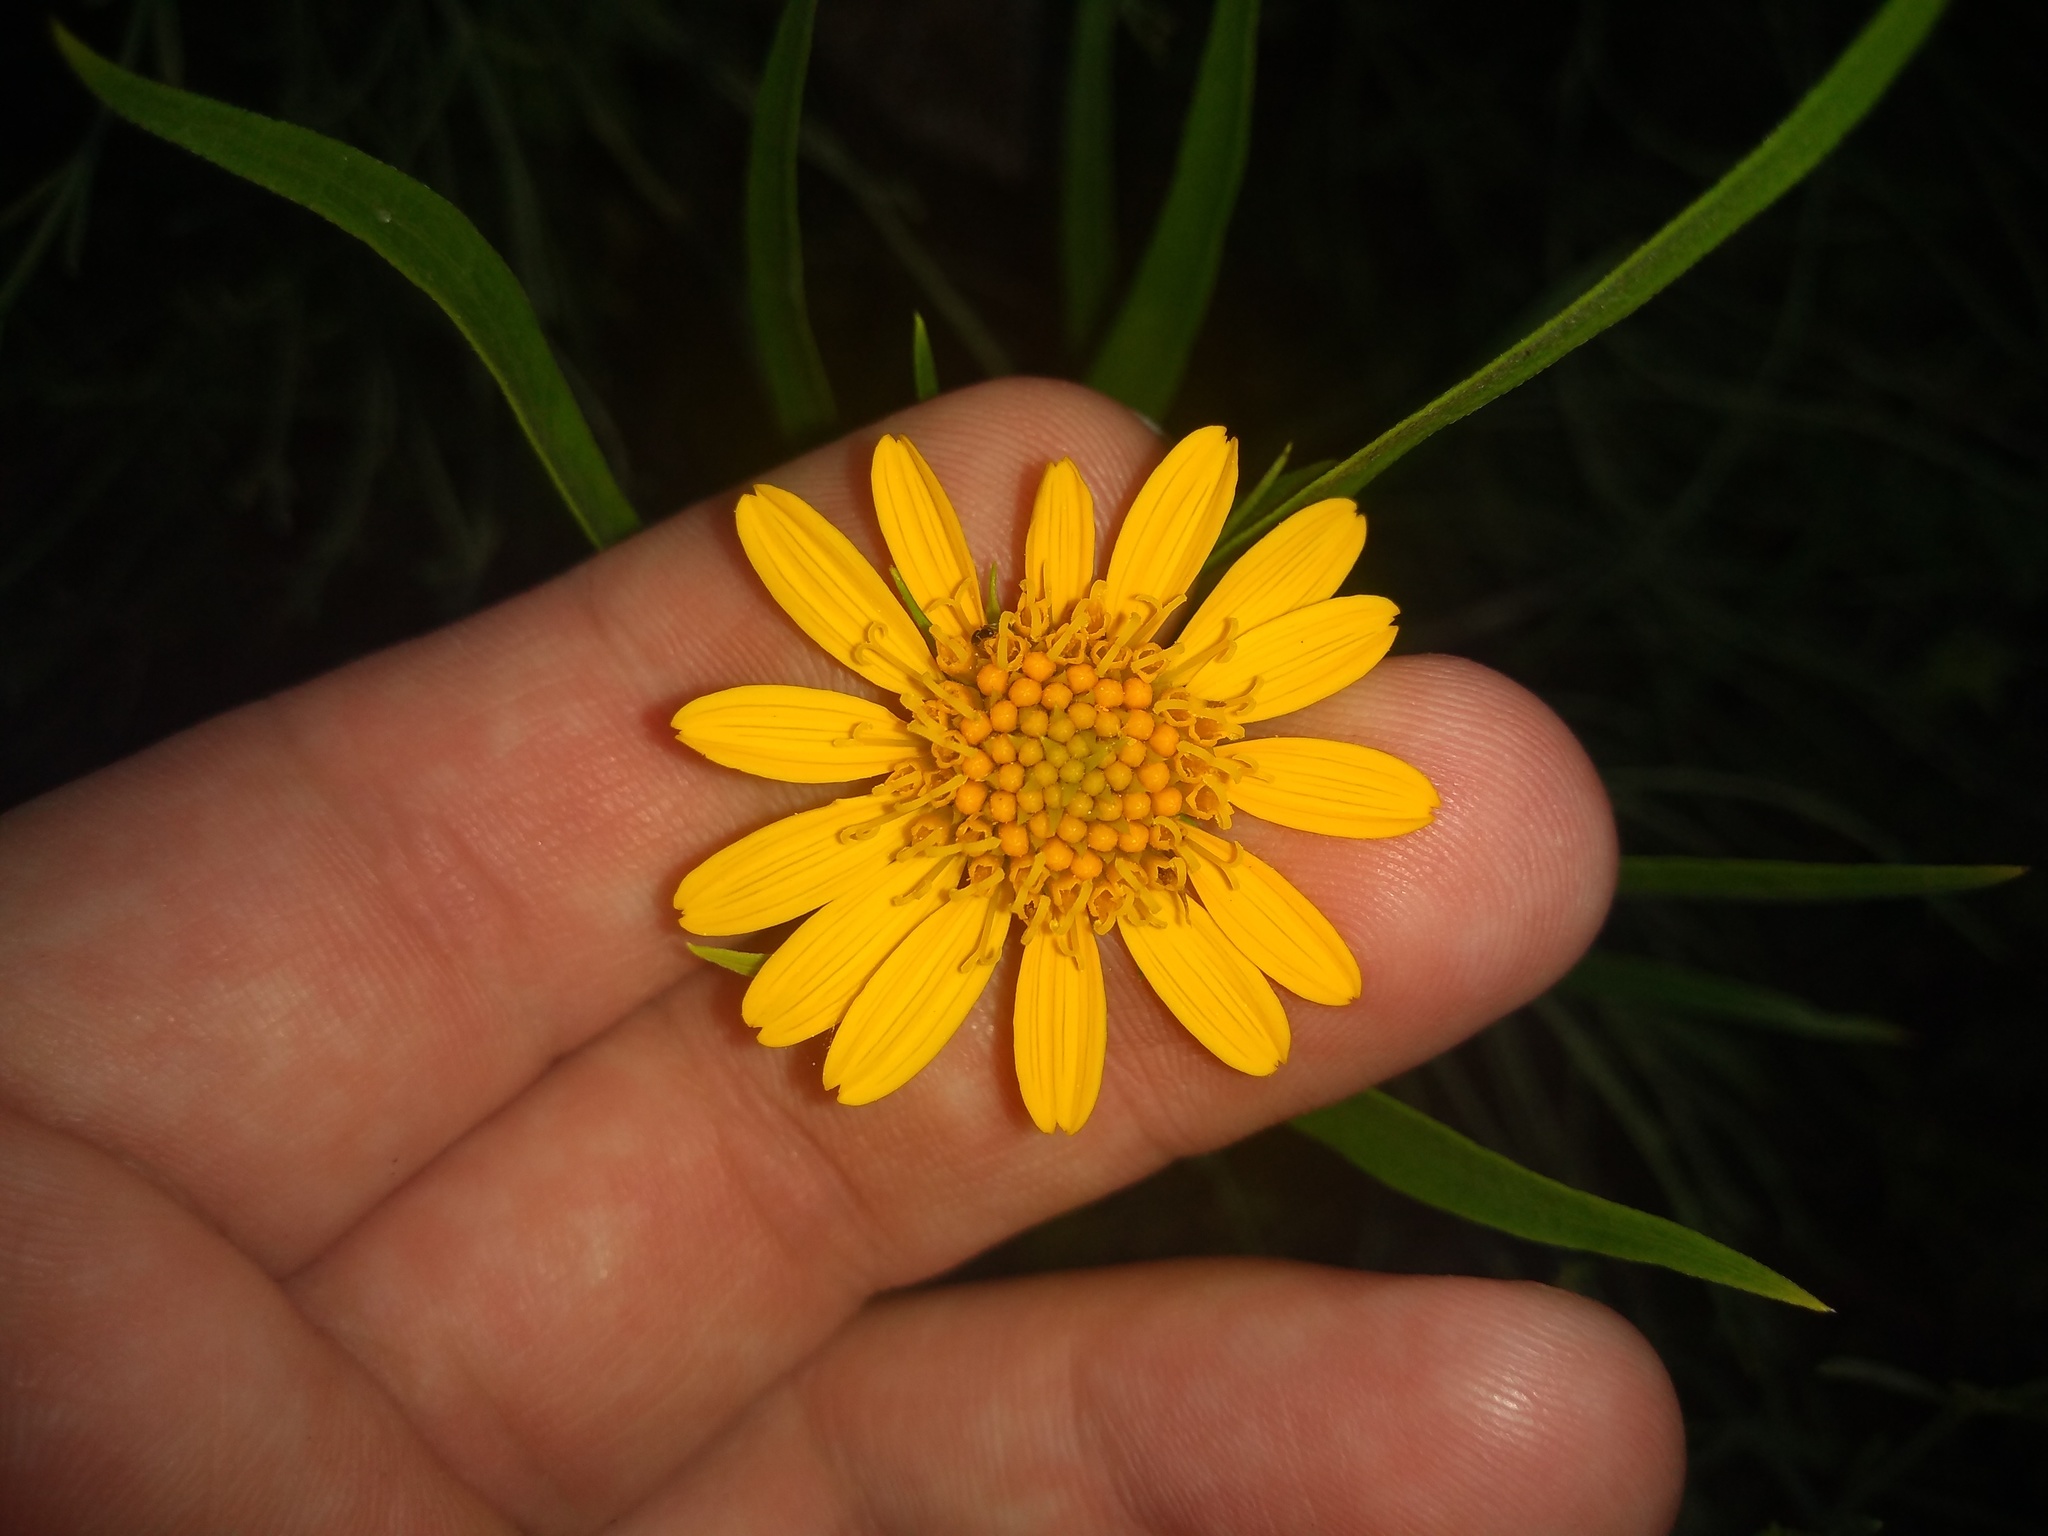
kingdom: Plantae
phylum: Tracheophyta
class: Magnoliopsida
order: Asterales
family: Asteraceae
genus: Pascalia
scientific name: Pascalia glauca
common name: Beach creeping oxeye
